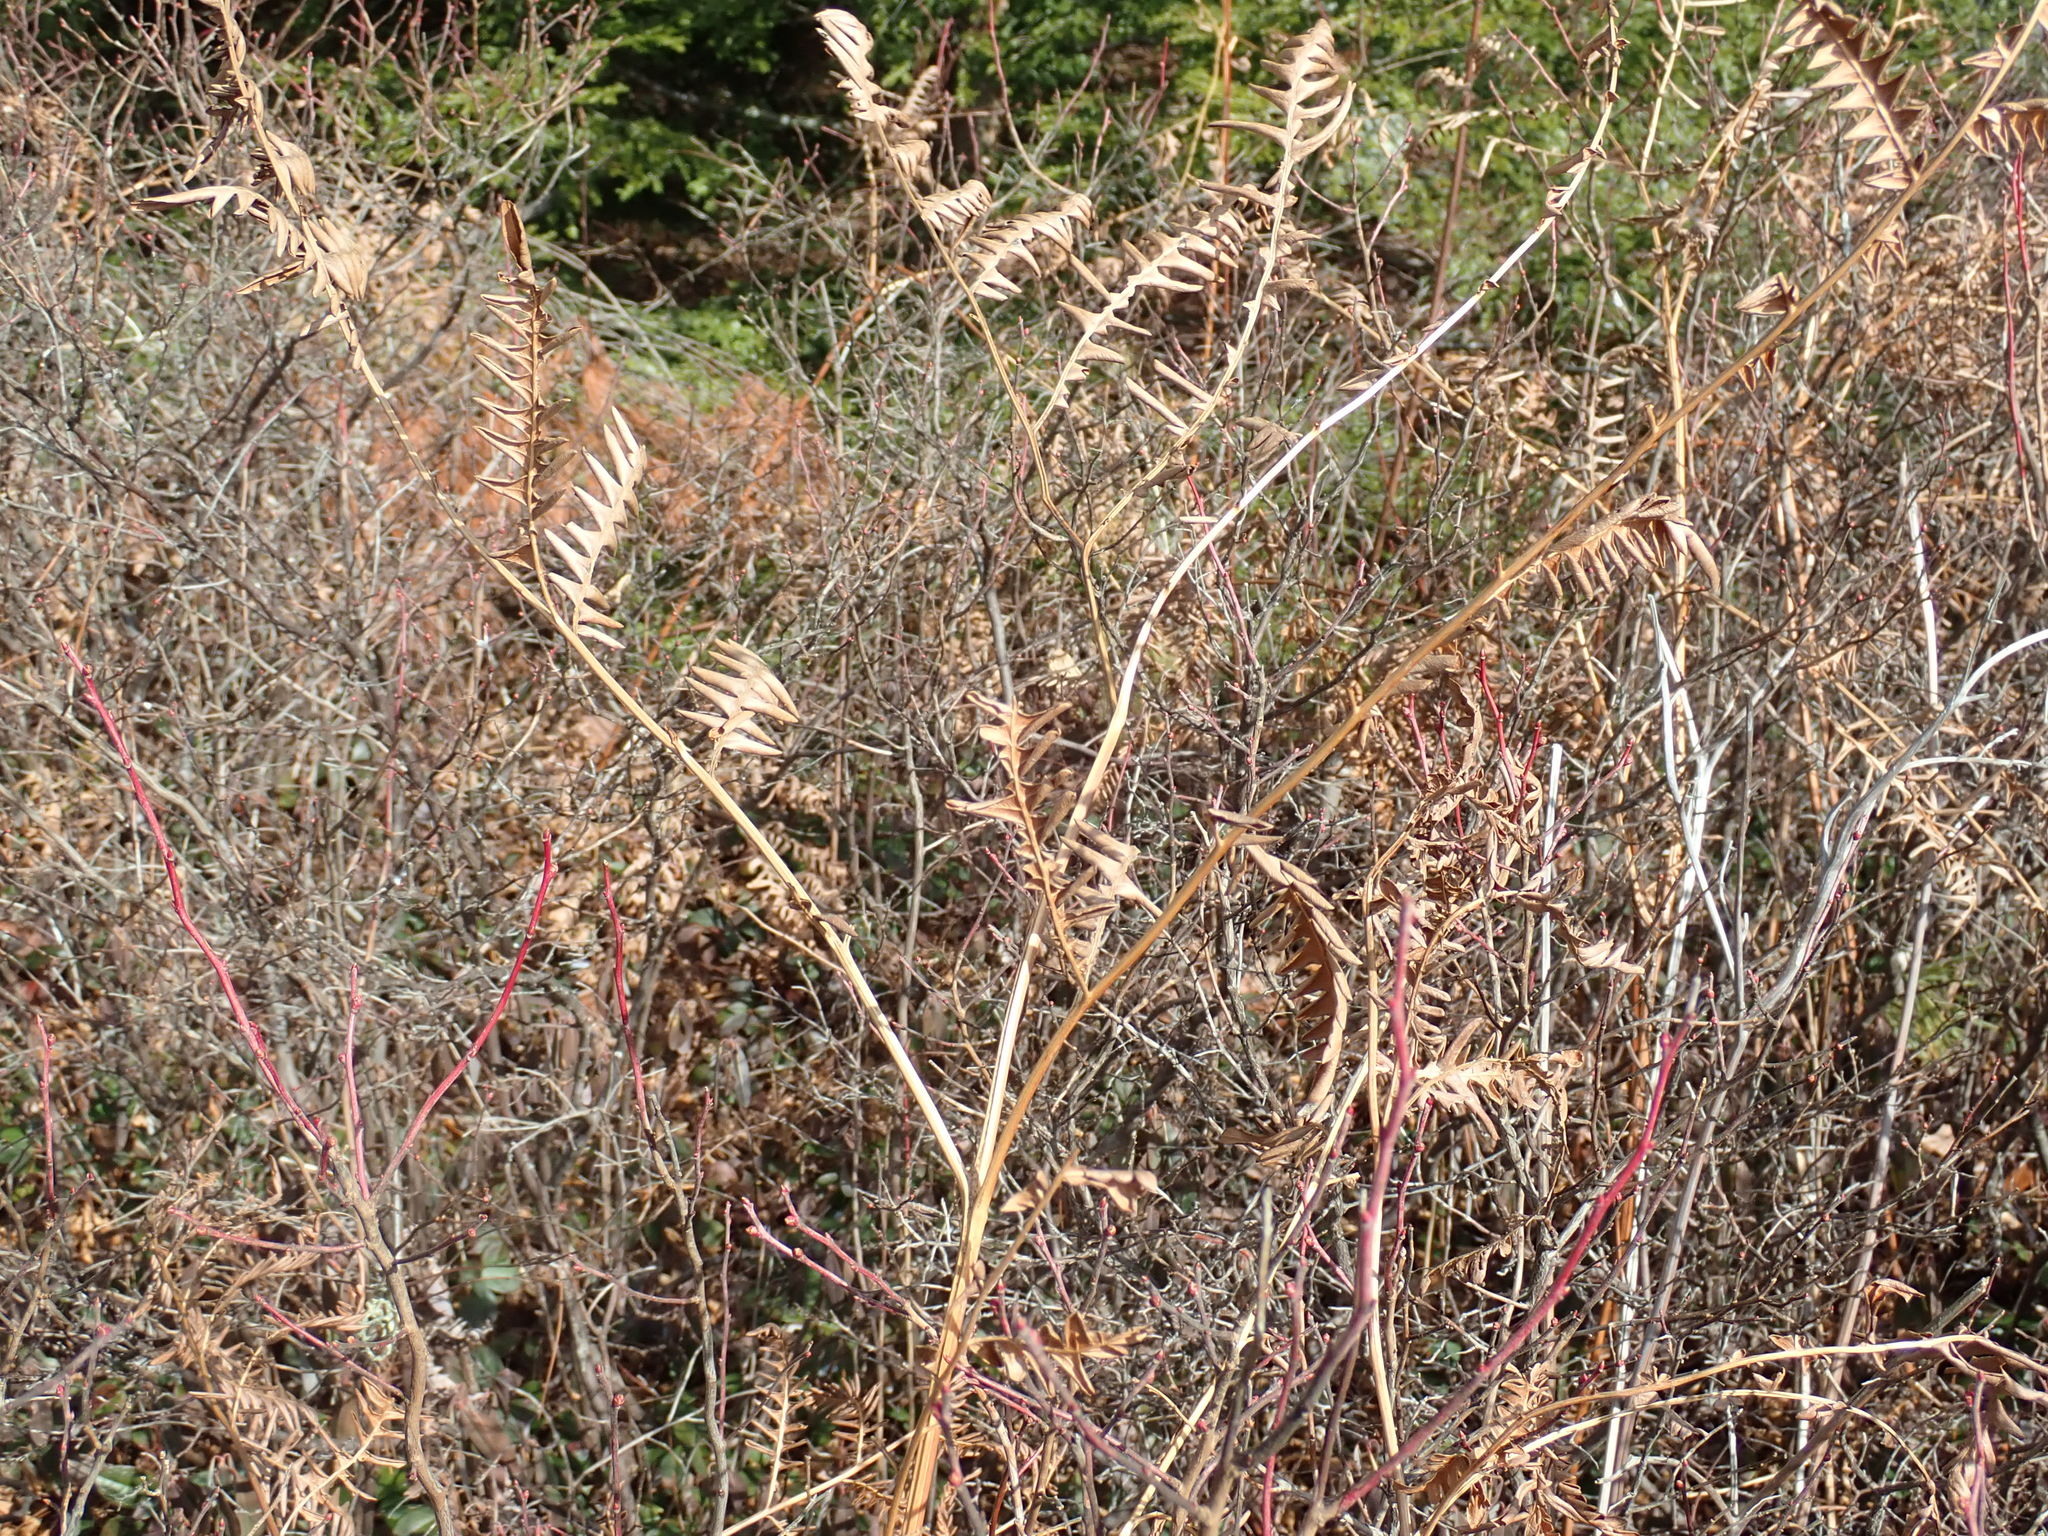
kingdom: Plantae
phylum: Tracheophyta
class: Polypodiopsida
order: Polypodiales
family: Dennstaedtiaceae
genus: Pteridium
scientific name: Pteridium aquilinum
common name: Bracken
